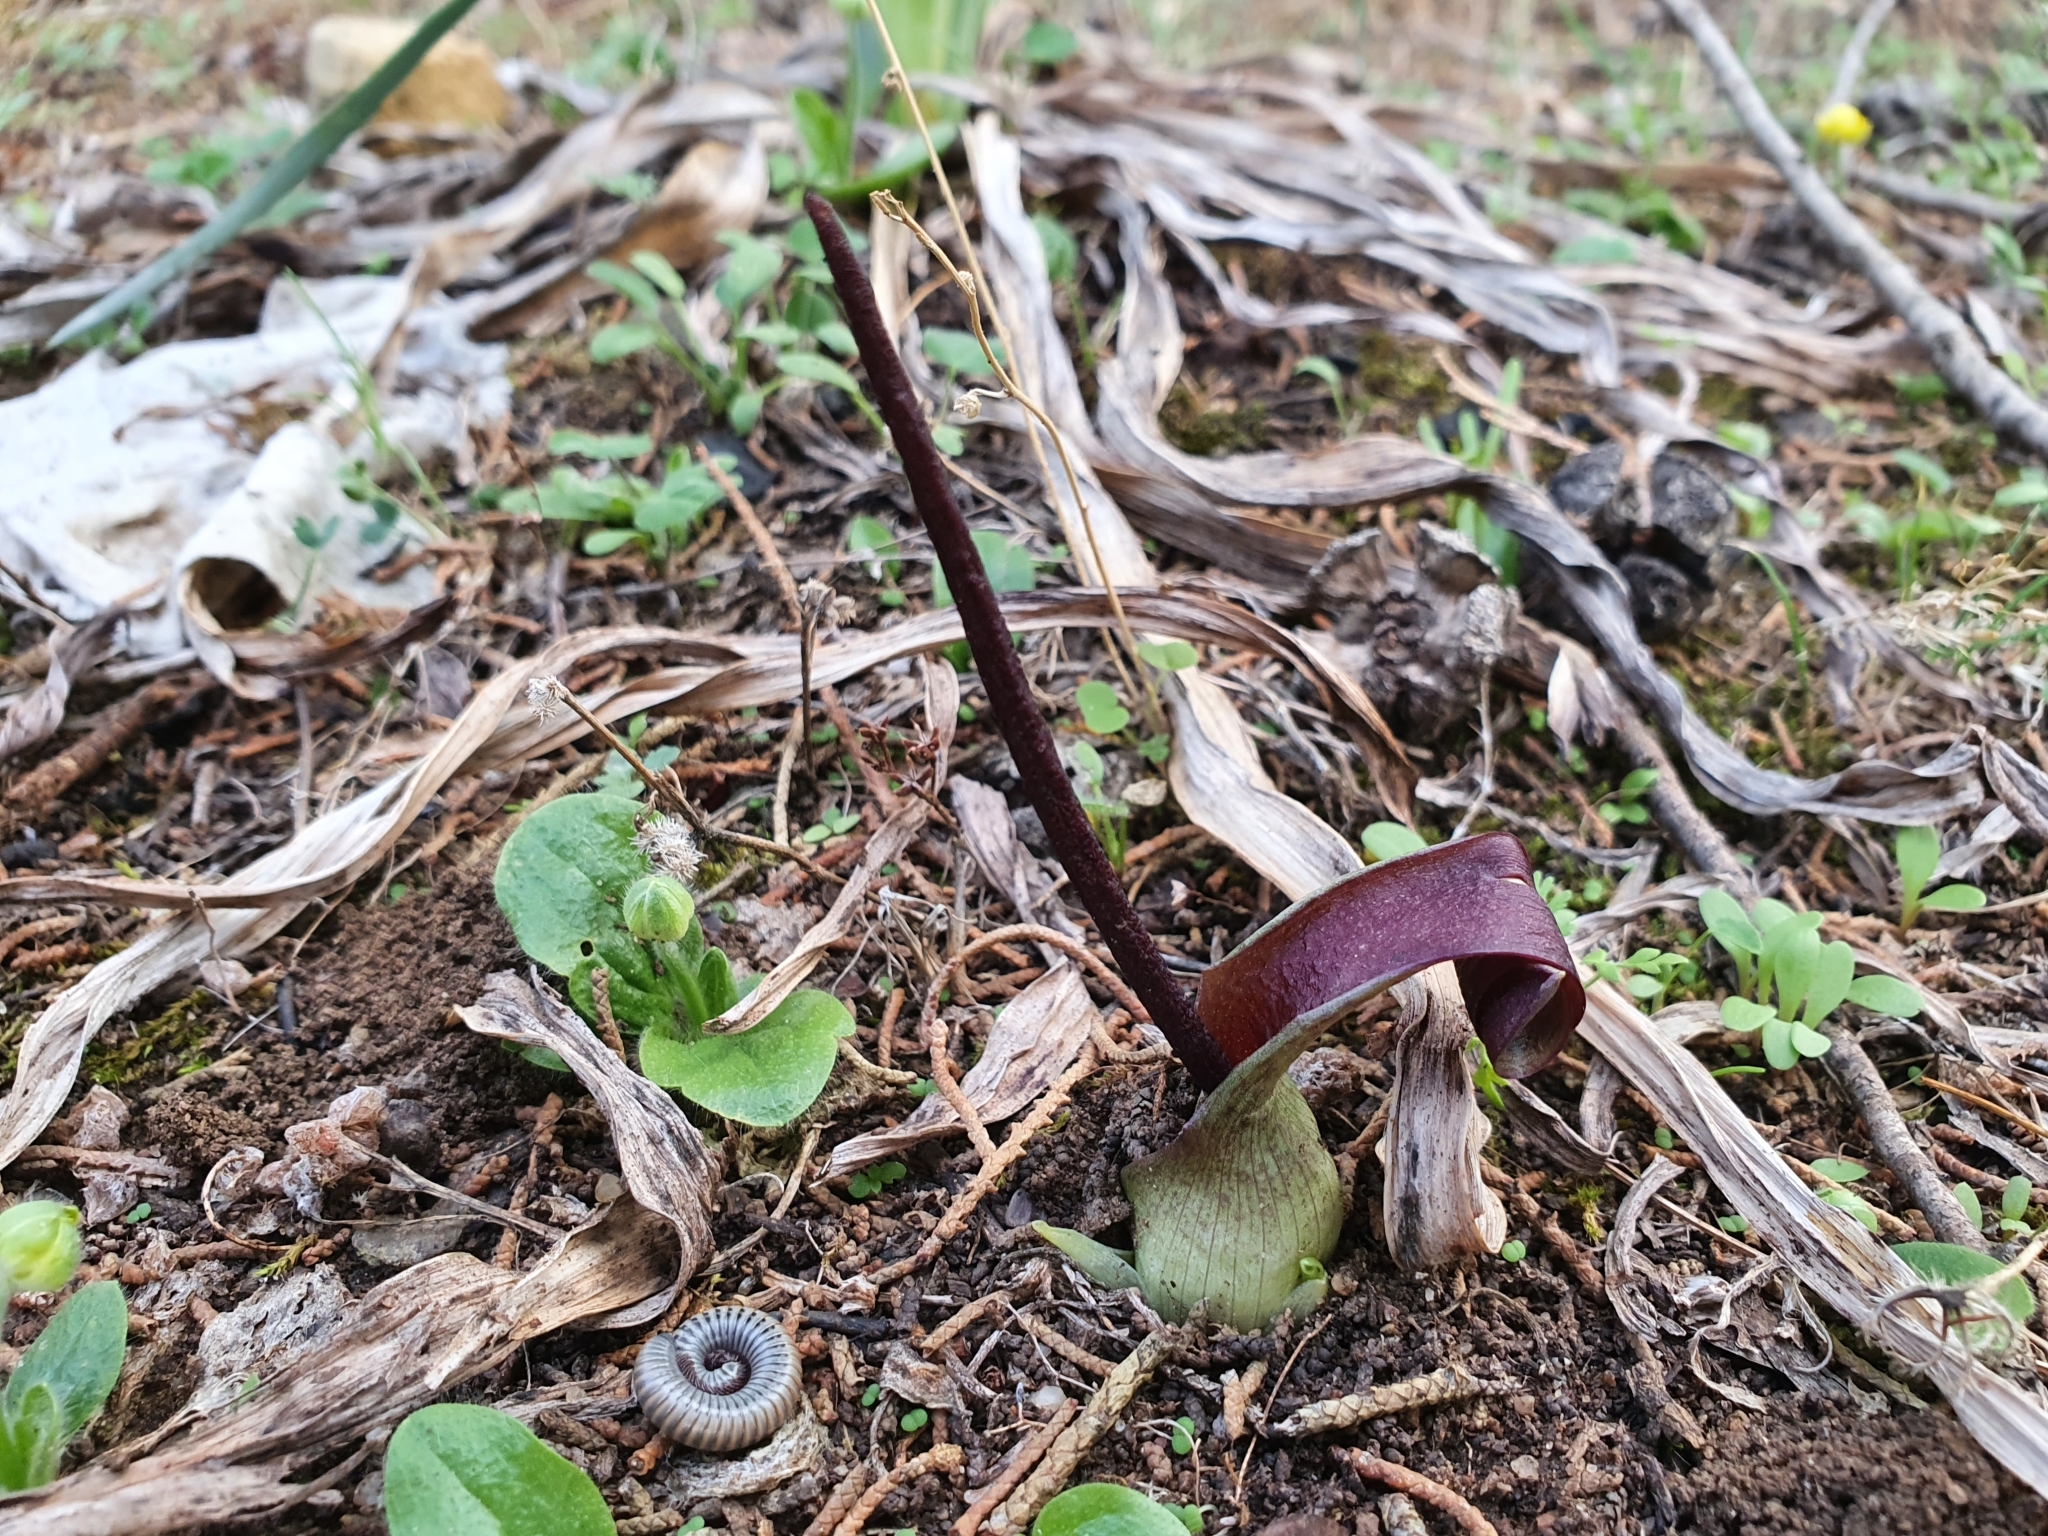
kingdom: Plantae
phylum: Tracheophyta
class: Liliopsida
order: Alismatales
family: Araceae
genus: Biarum
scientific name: Biarum dispar
